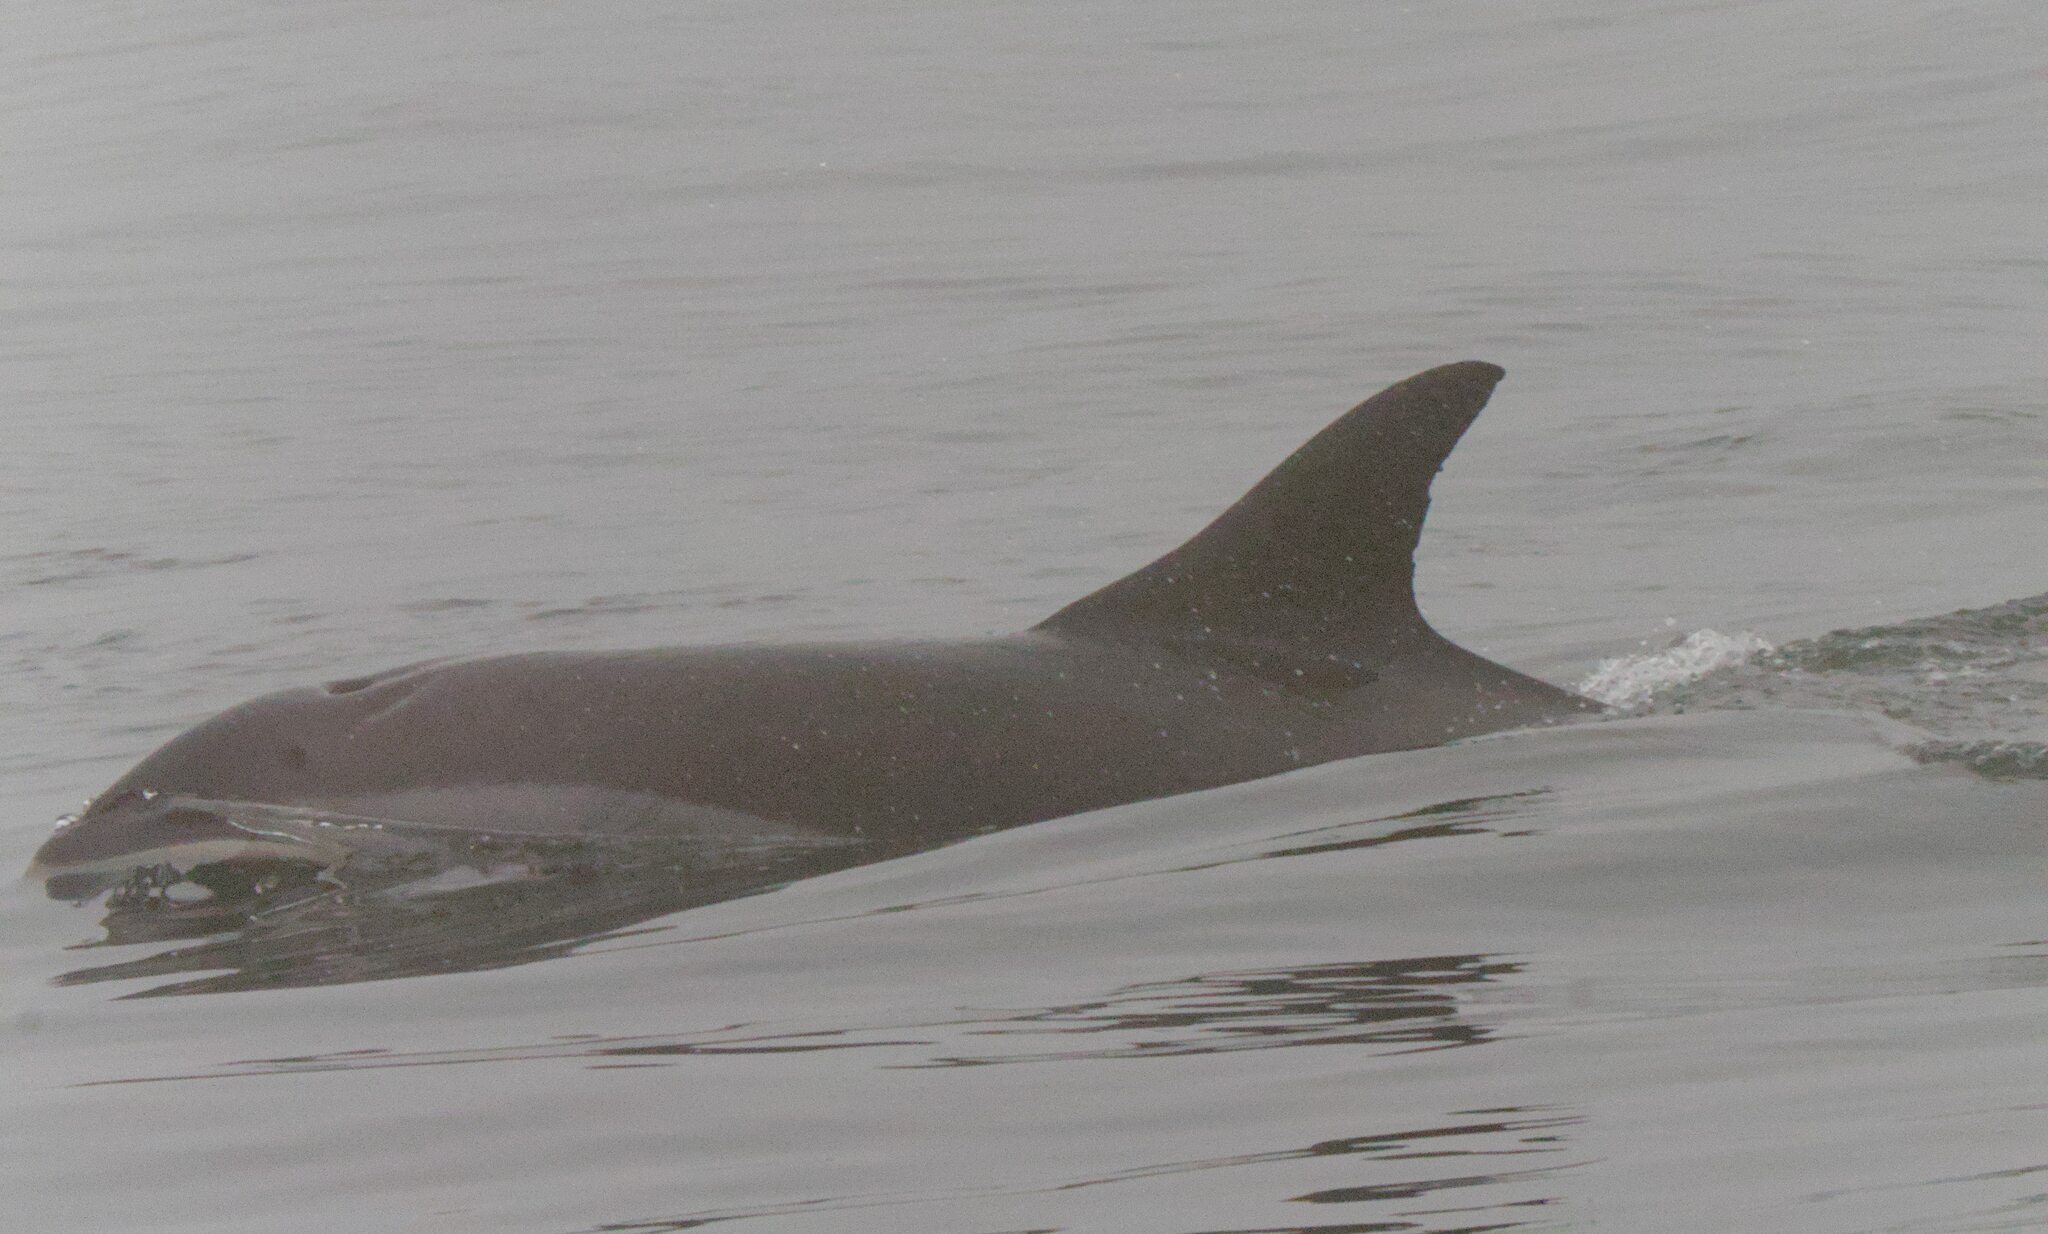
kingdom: Animalia
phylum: Chordata
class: Mammalia
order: Cetacea
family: Delphinidae
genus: Lagenorhynchus
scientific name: Lagenorhynchus acutus
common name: Atlantic white-sided dolphin
